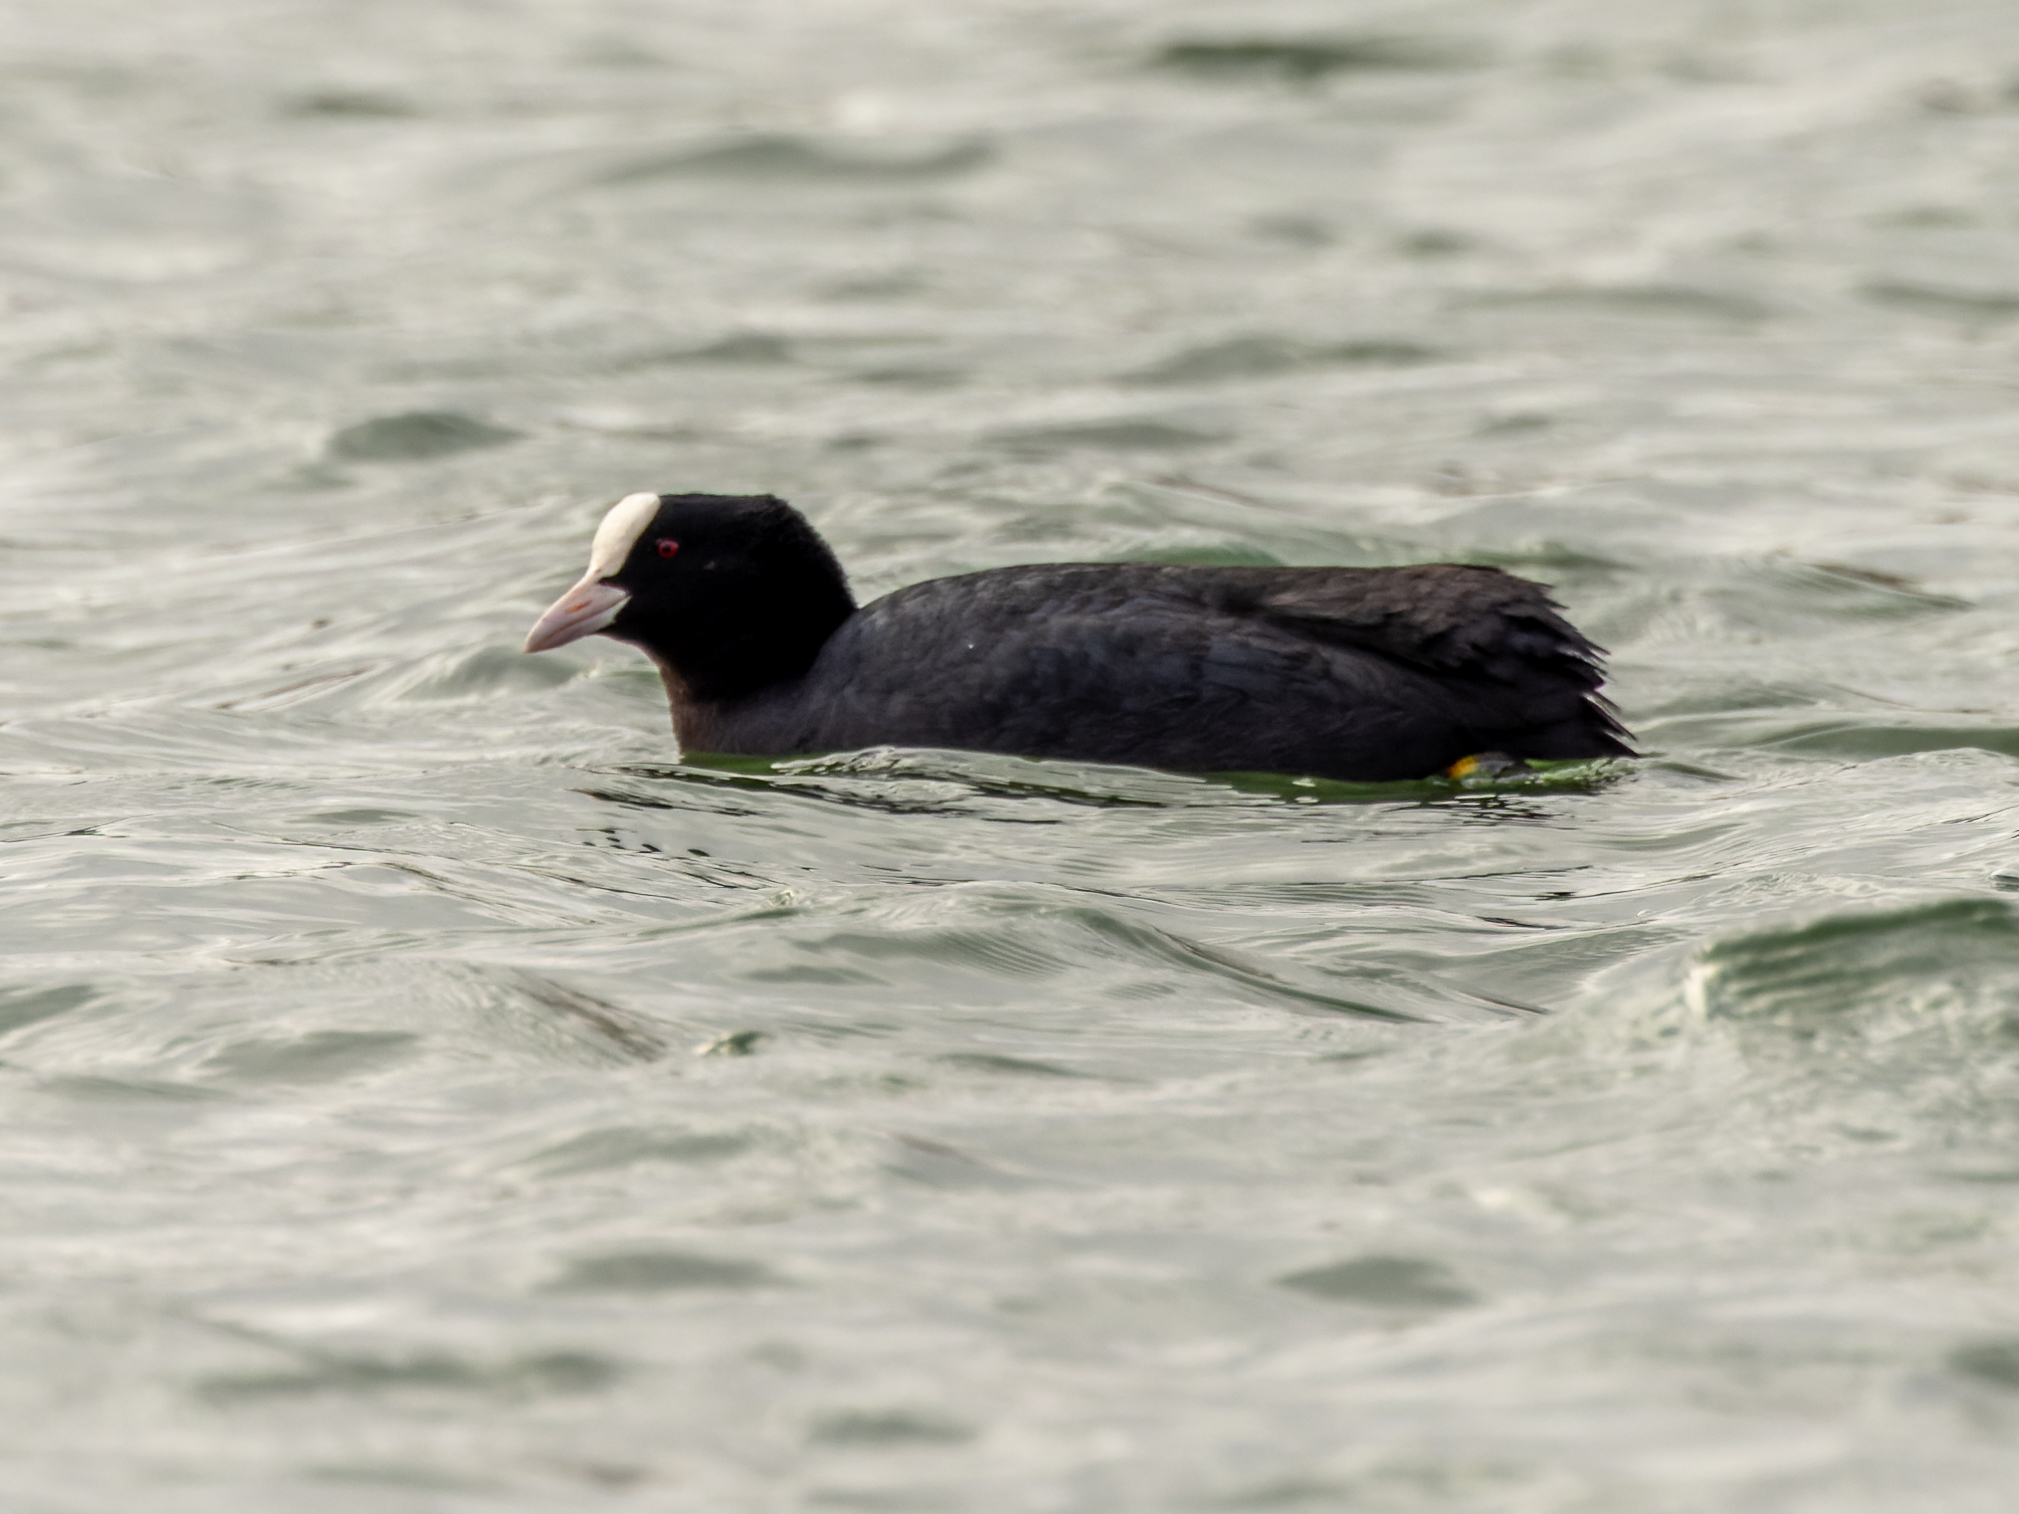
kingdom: Animalia
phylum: Chordata
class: Aves
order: Gruiformes
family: Rallidae
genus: Fulica
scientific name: Fulica atra
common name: Eurasian coot
